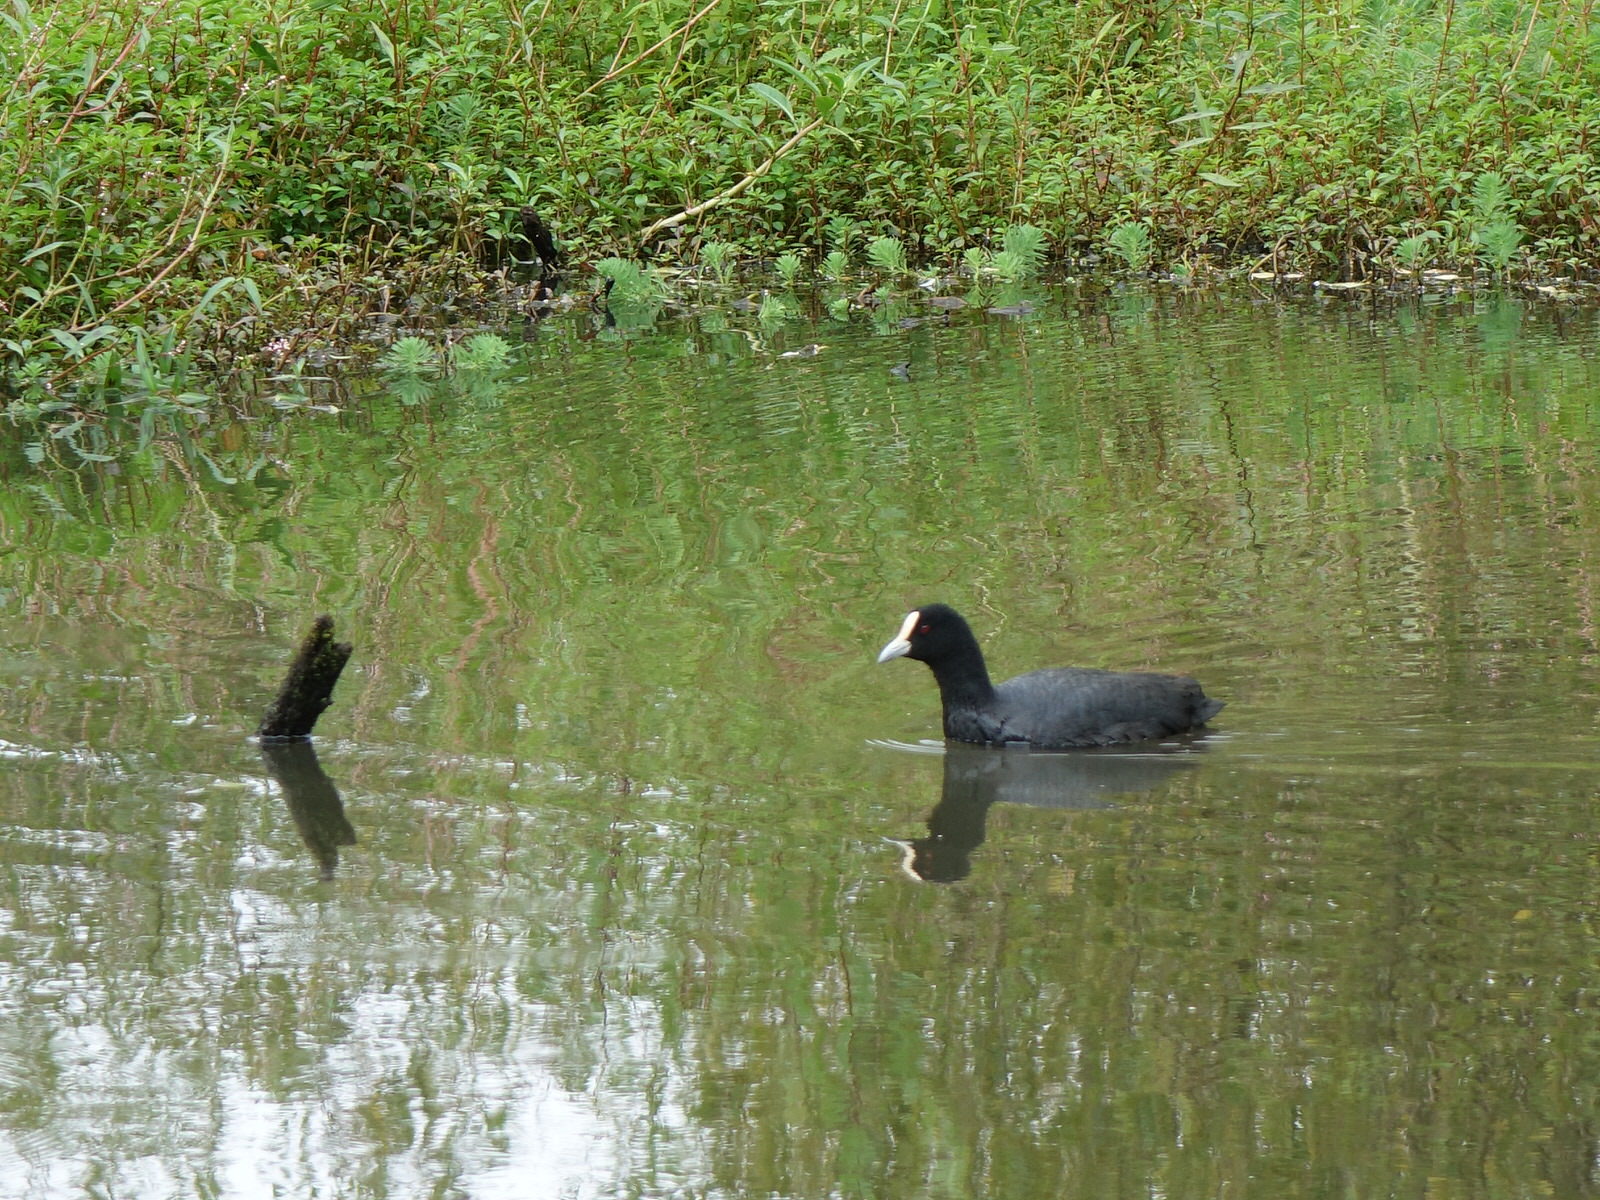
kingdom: Animalia
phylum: Chordata
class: Aves
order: Gruiformes
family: Rallidae
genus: Fulica
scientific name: Fulica atra
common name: Eurasian coot
